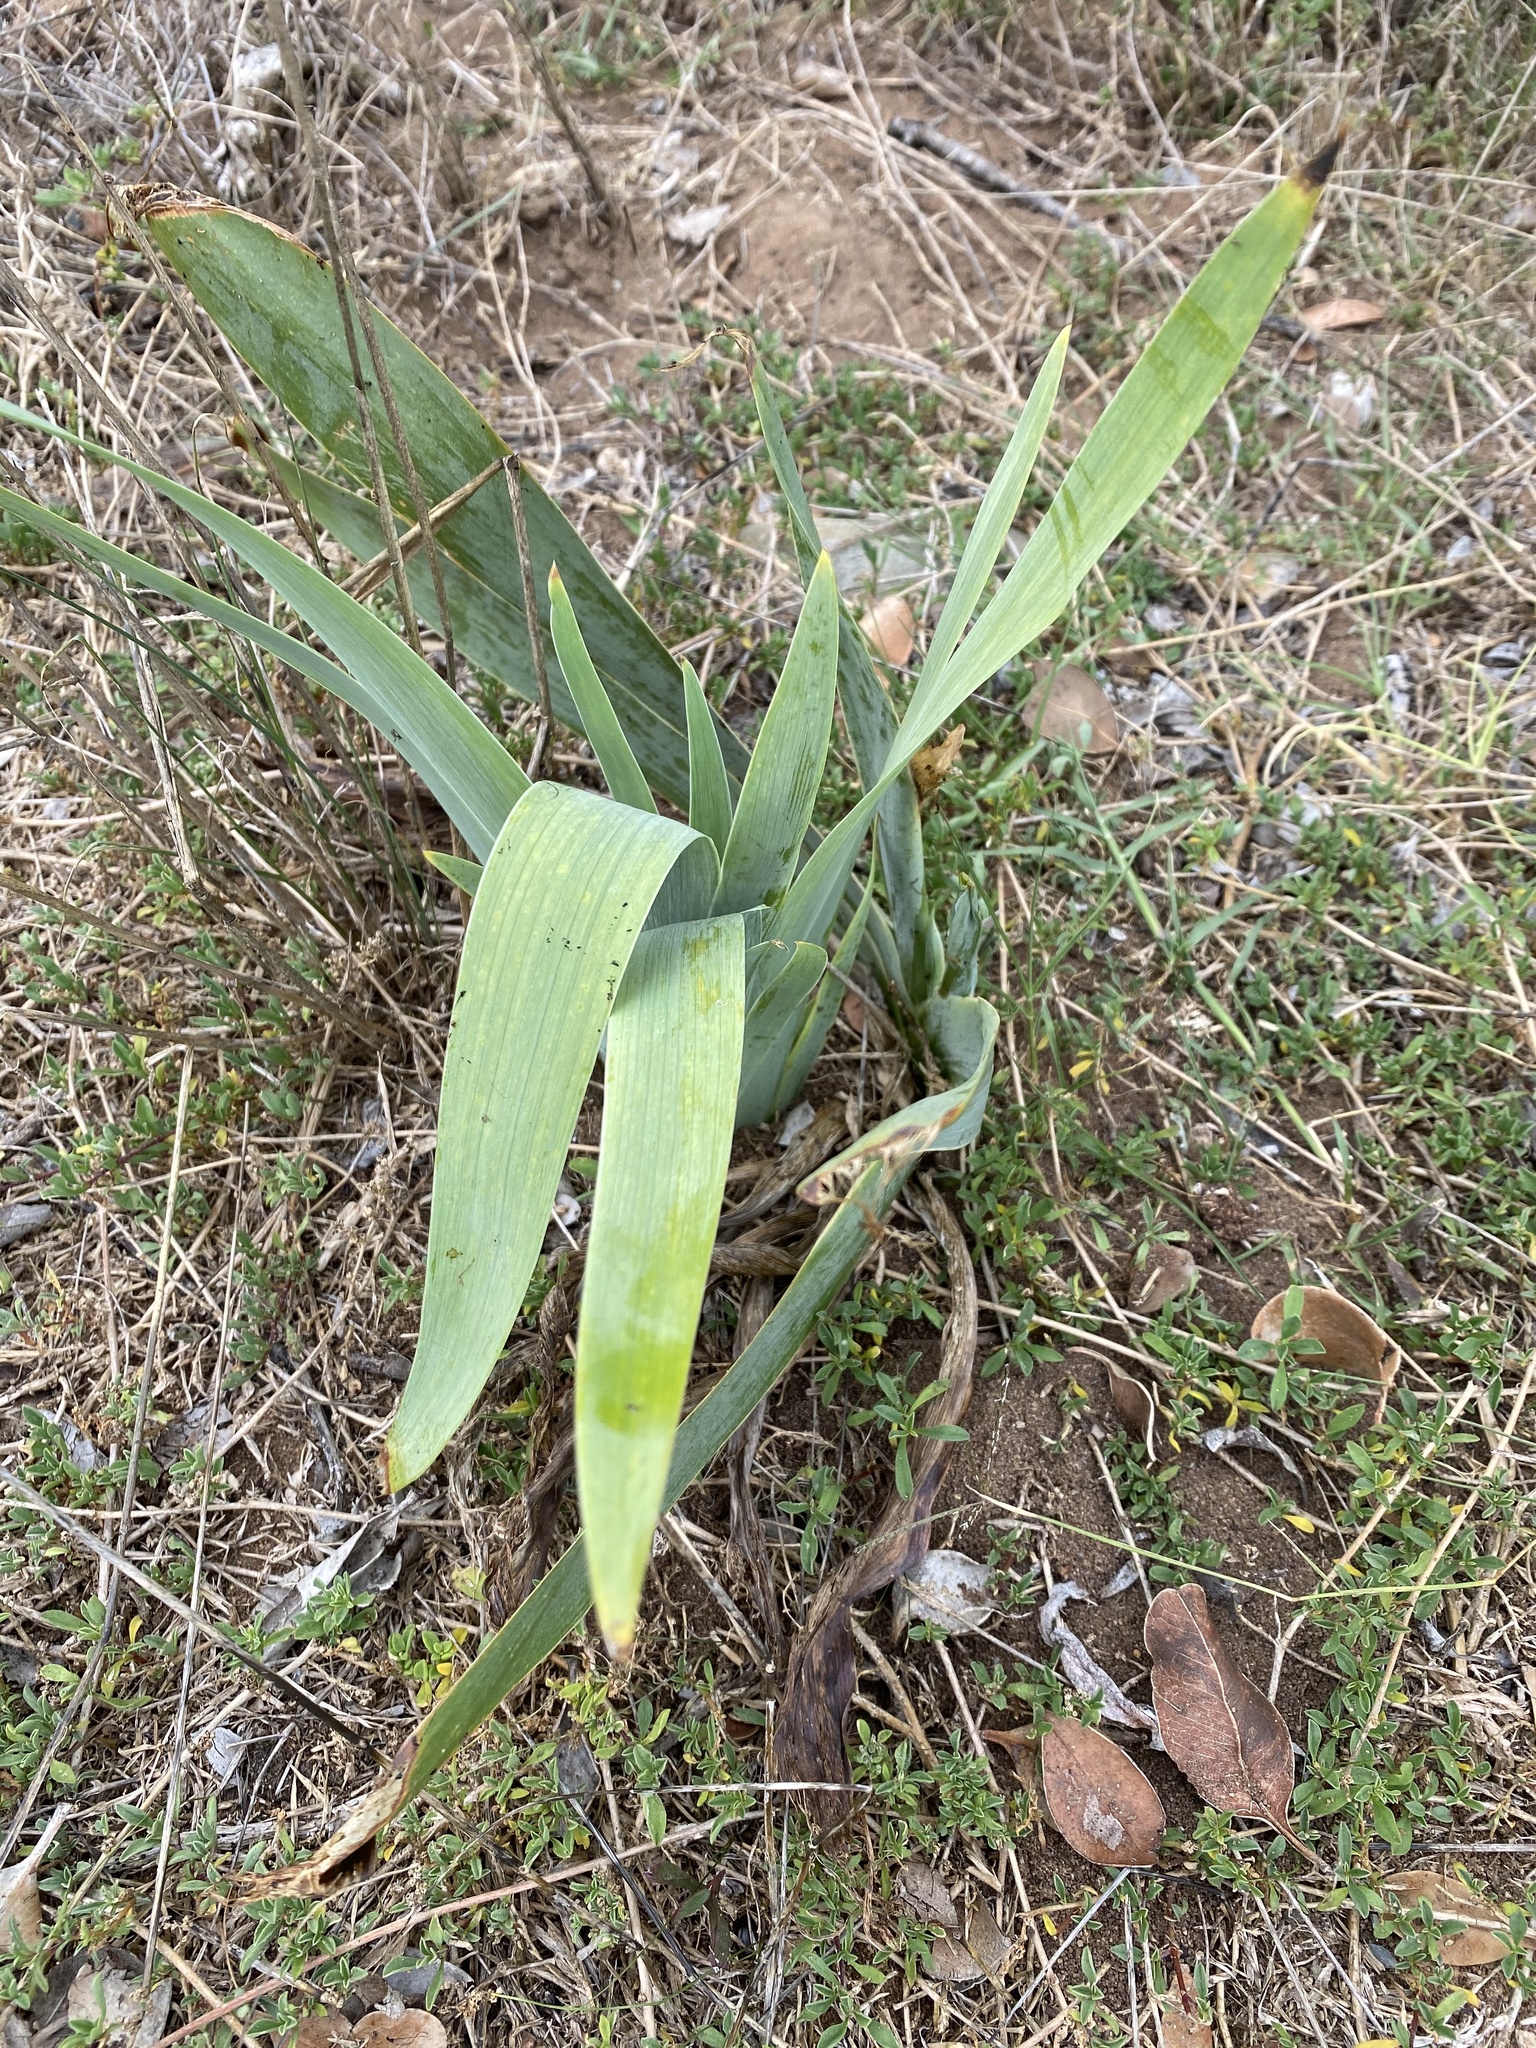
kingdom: Plantae
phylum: Tracheophyta
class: Liliopsida
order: Asparagales
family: Iridaceae
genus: Iris
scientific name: Iris germanica
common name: German iris
